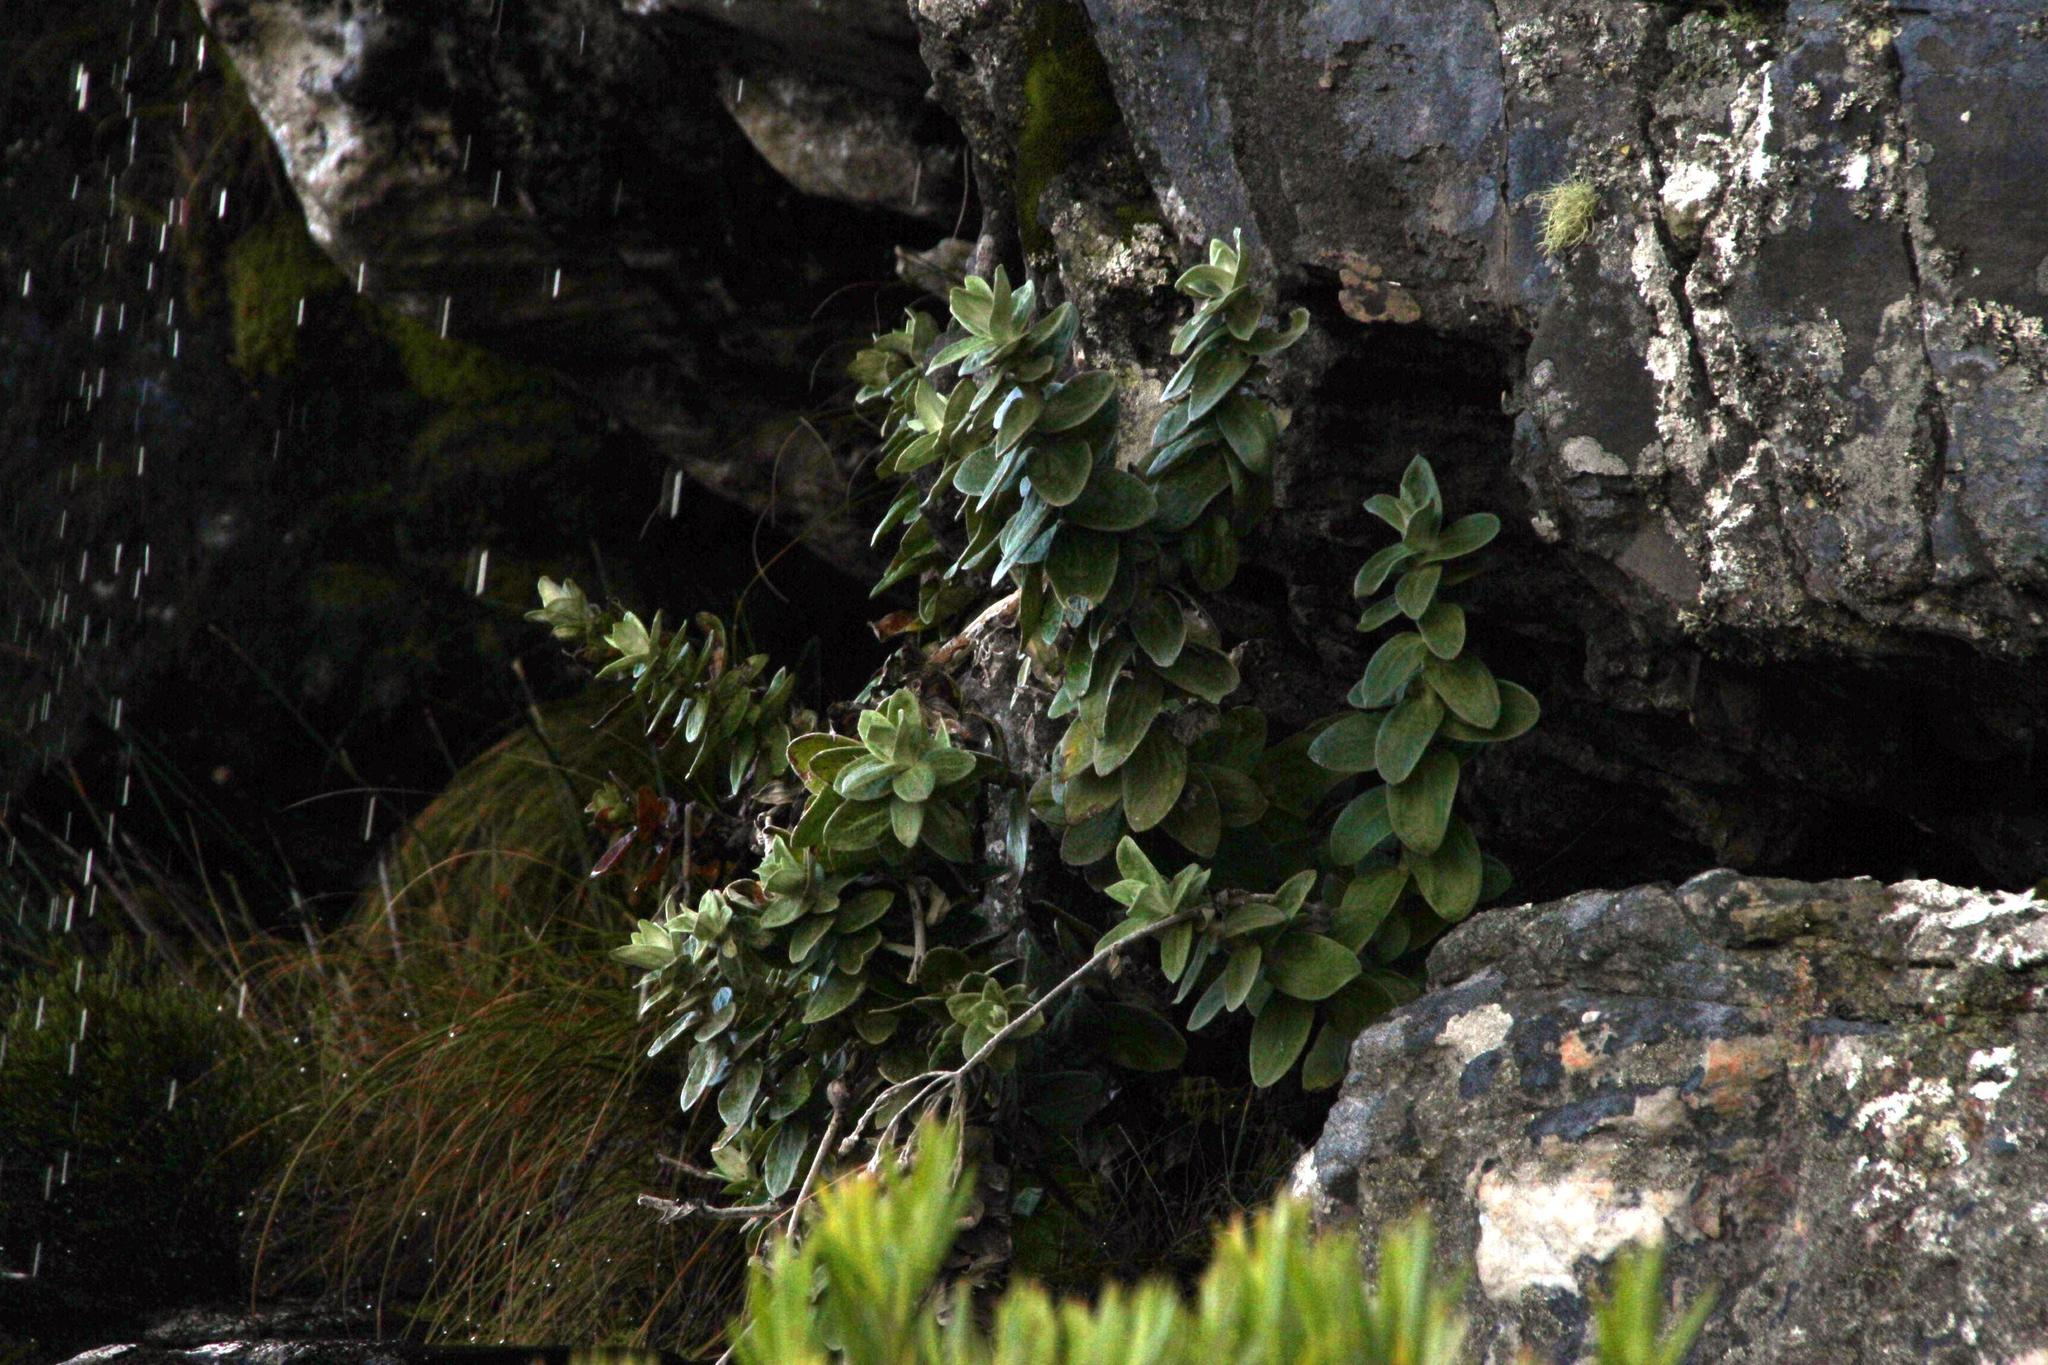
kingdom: Plantae
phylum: Tracheophyta
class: Magnoliopsida
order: Asterales
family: Asteraceae
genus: Helichrysum
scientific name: Helichrysum fruticans
